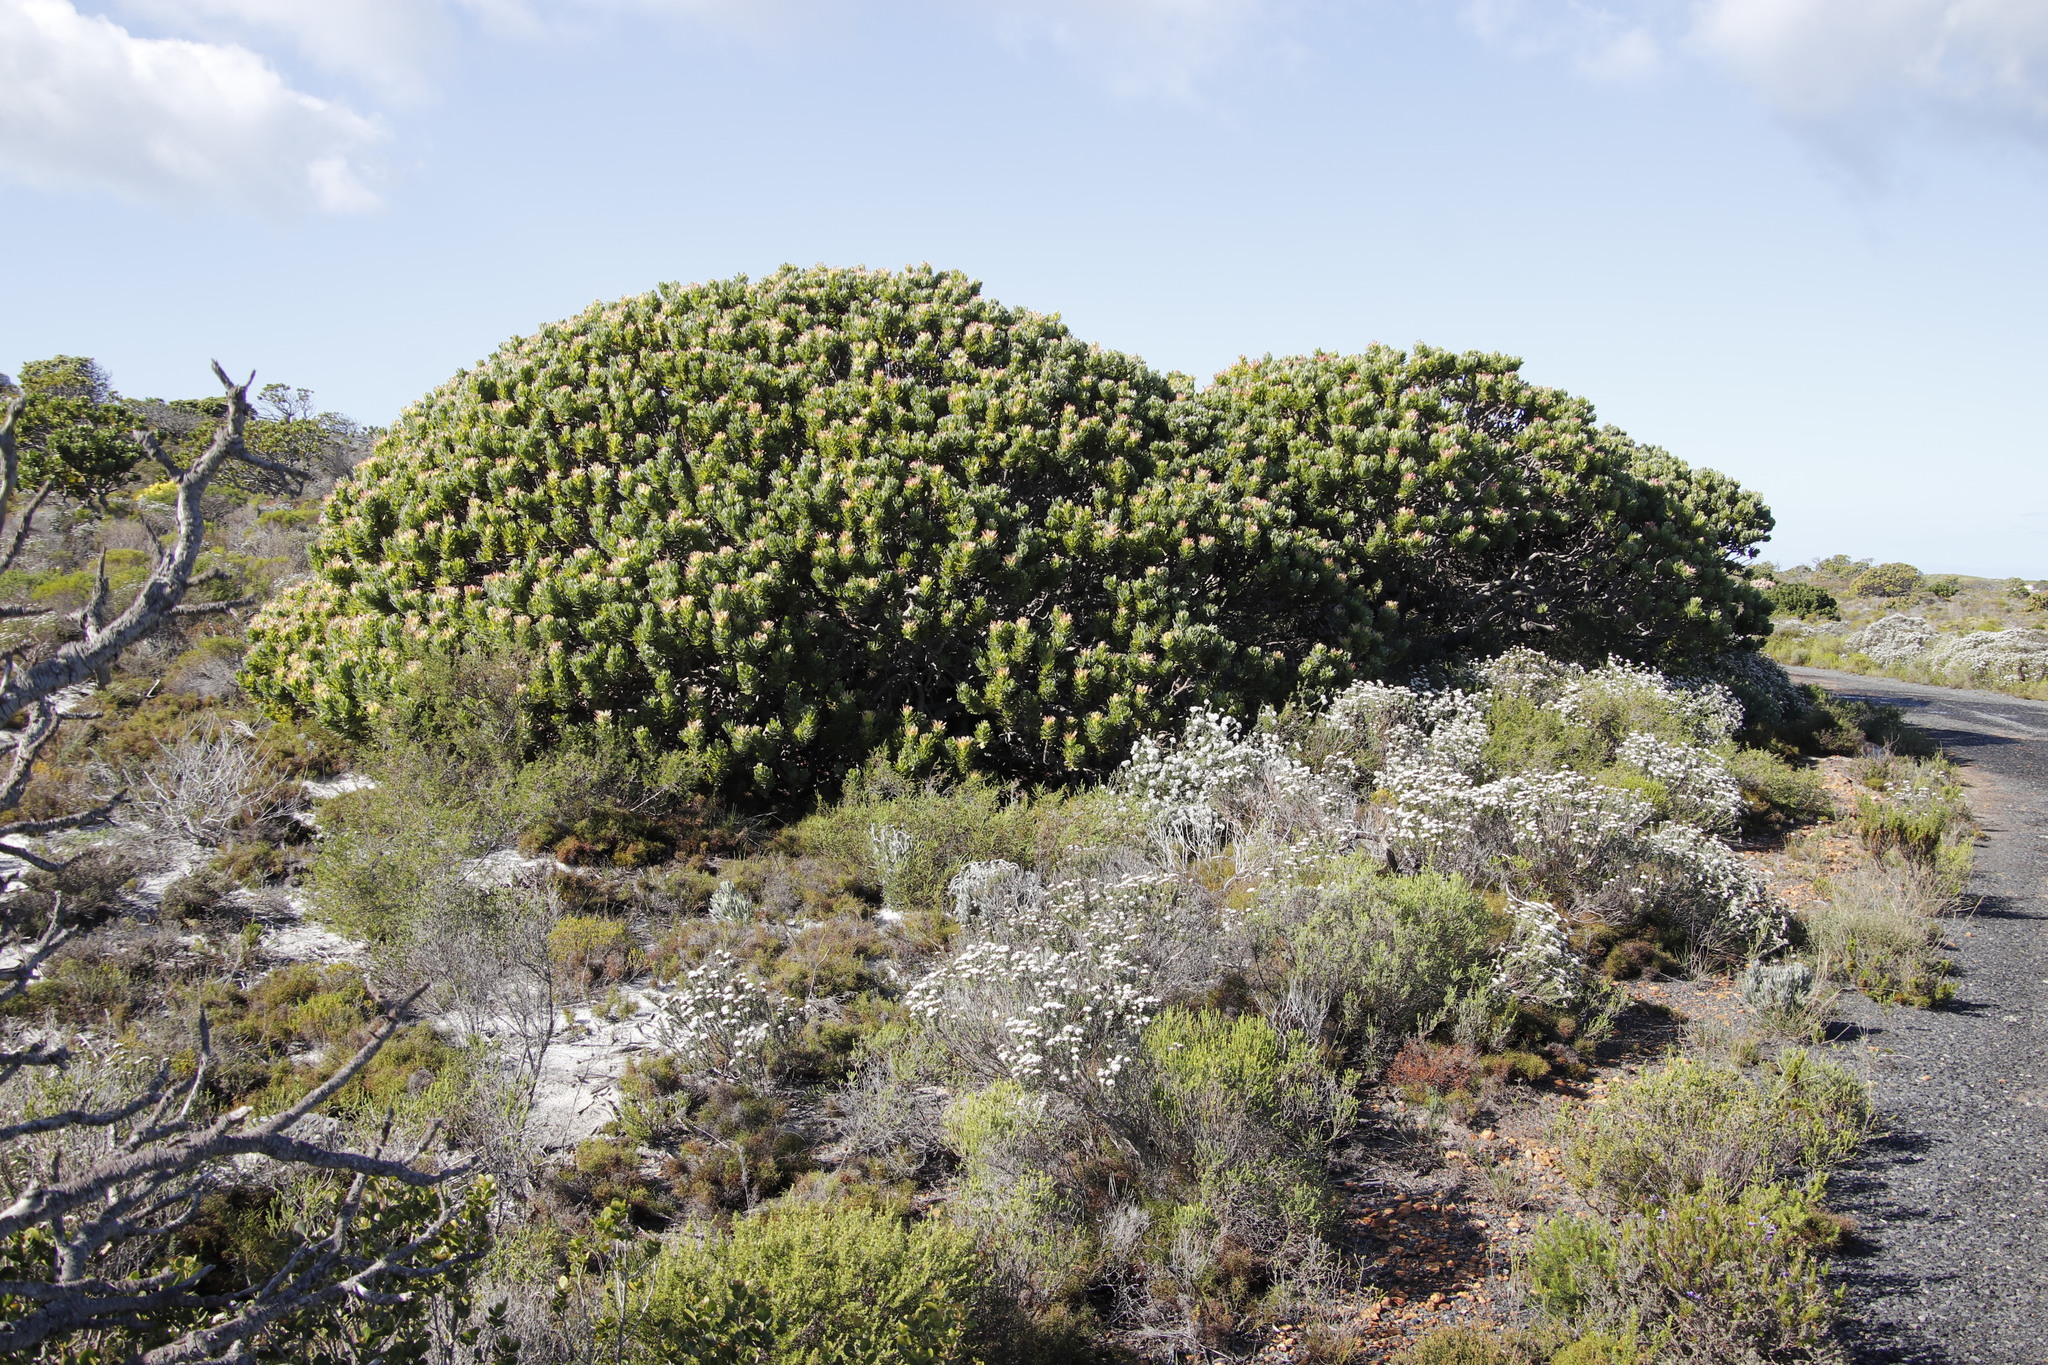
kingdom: Plantae
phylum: Tracheophyta
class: Magnoliopsida
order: Proteales
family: Proteaceae
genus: Mimetes
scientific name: Mimetes fimbriifolius
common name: Fringed bottlebrush
